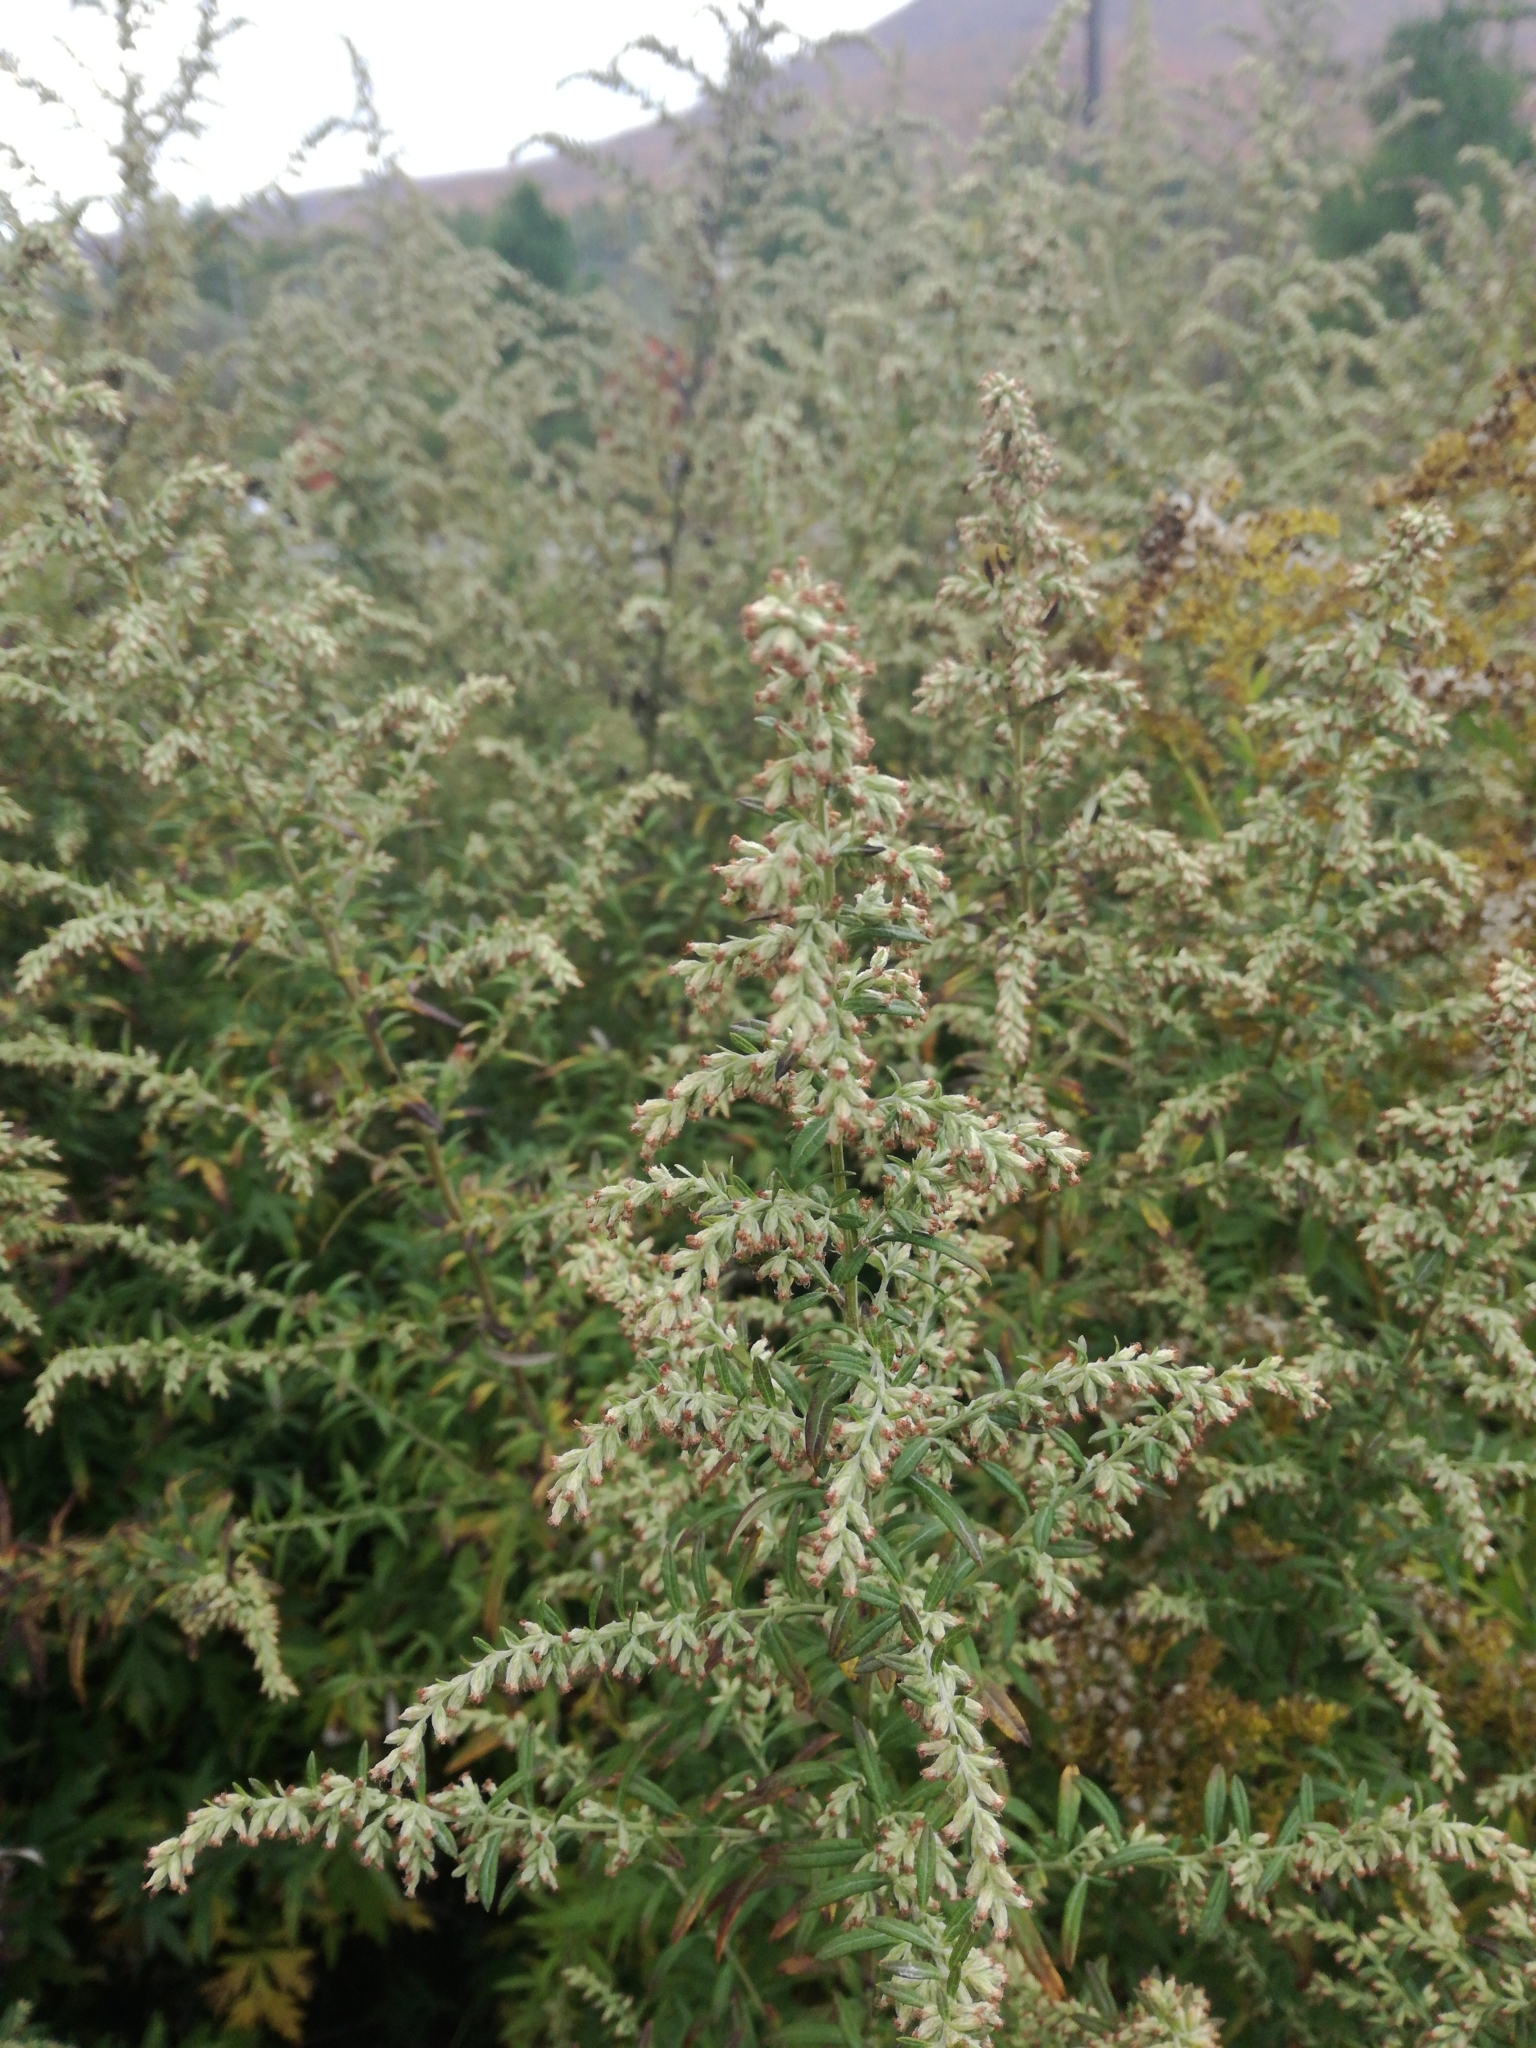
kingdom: Plantae
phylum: Tracheophyta
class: Magnoliopsida
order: Asterales
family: Asteraceae
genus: Artemisia
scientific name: Artemisia vulgaris
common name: Mugwort
